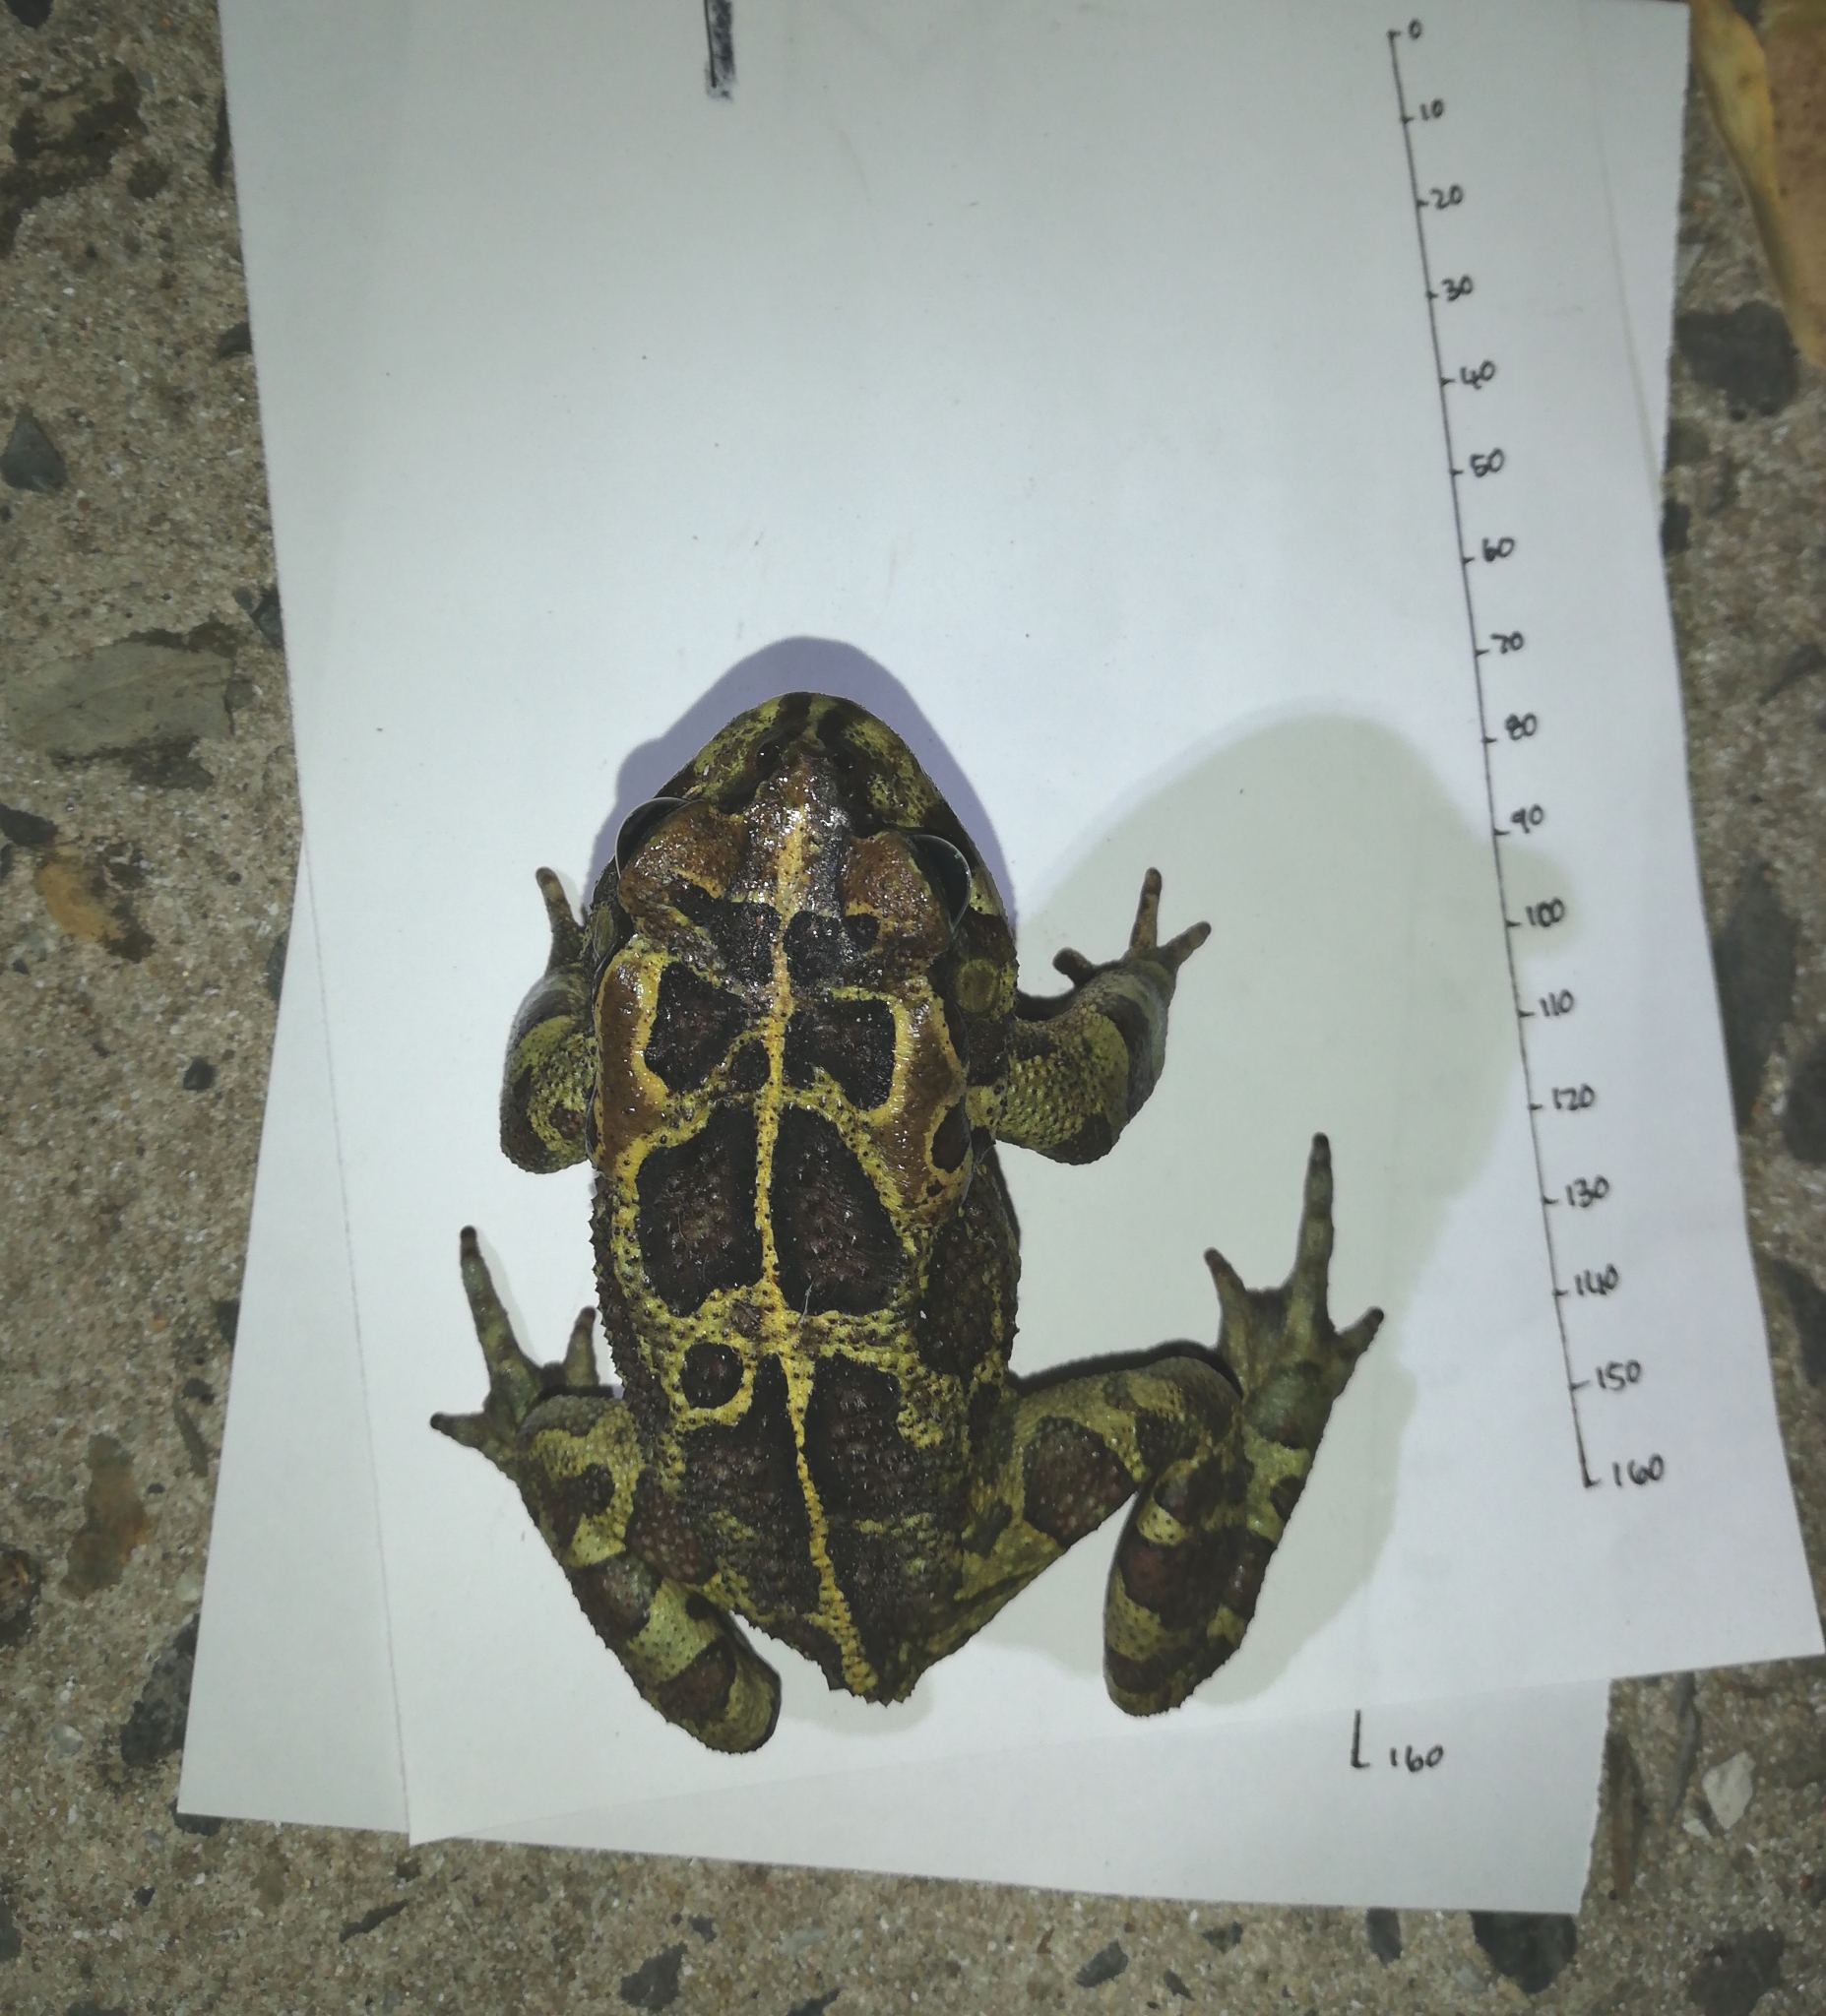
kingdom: Animalia
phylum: Chordata
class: Amphibia
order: Anura
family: Bufonidae
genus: Sclerophrys
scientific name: Sclerophrys pantherina
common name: Panther toad
